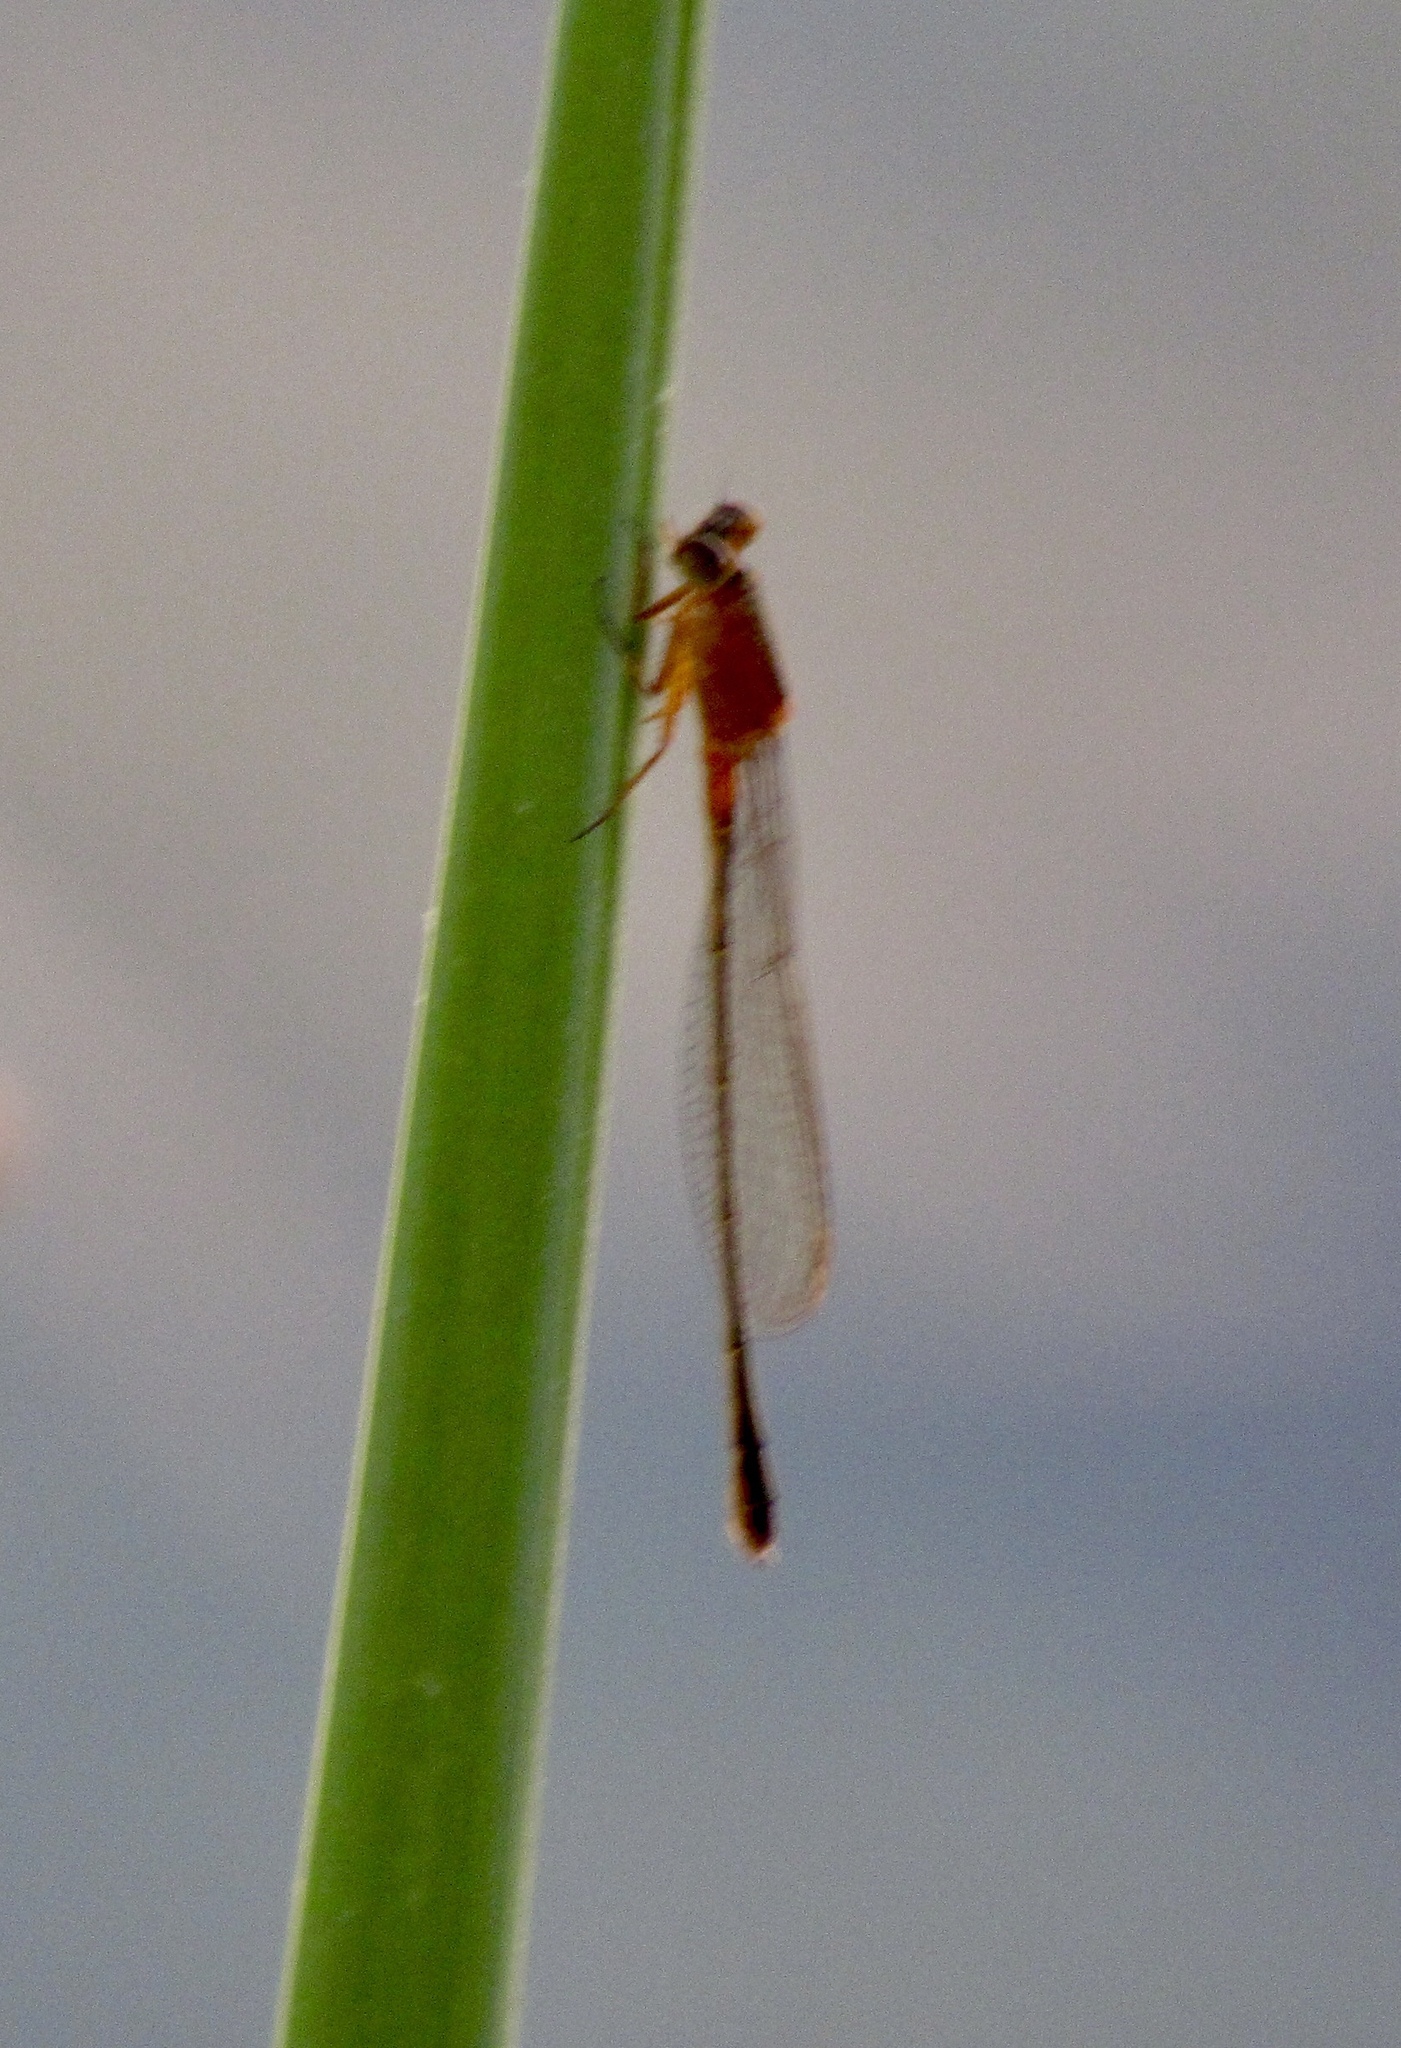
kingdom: Animalia
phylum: Arthropoda
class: Insecta
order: Odonata
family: Coenagrionidae
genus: Telebasis
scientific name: Telebasis salva
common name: Desert firetail
